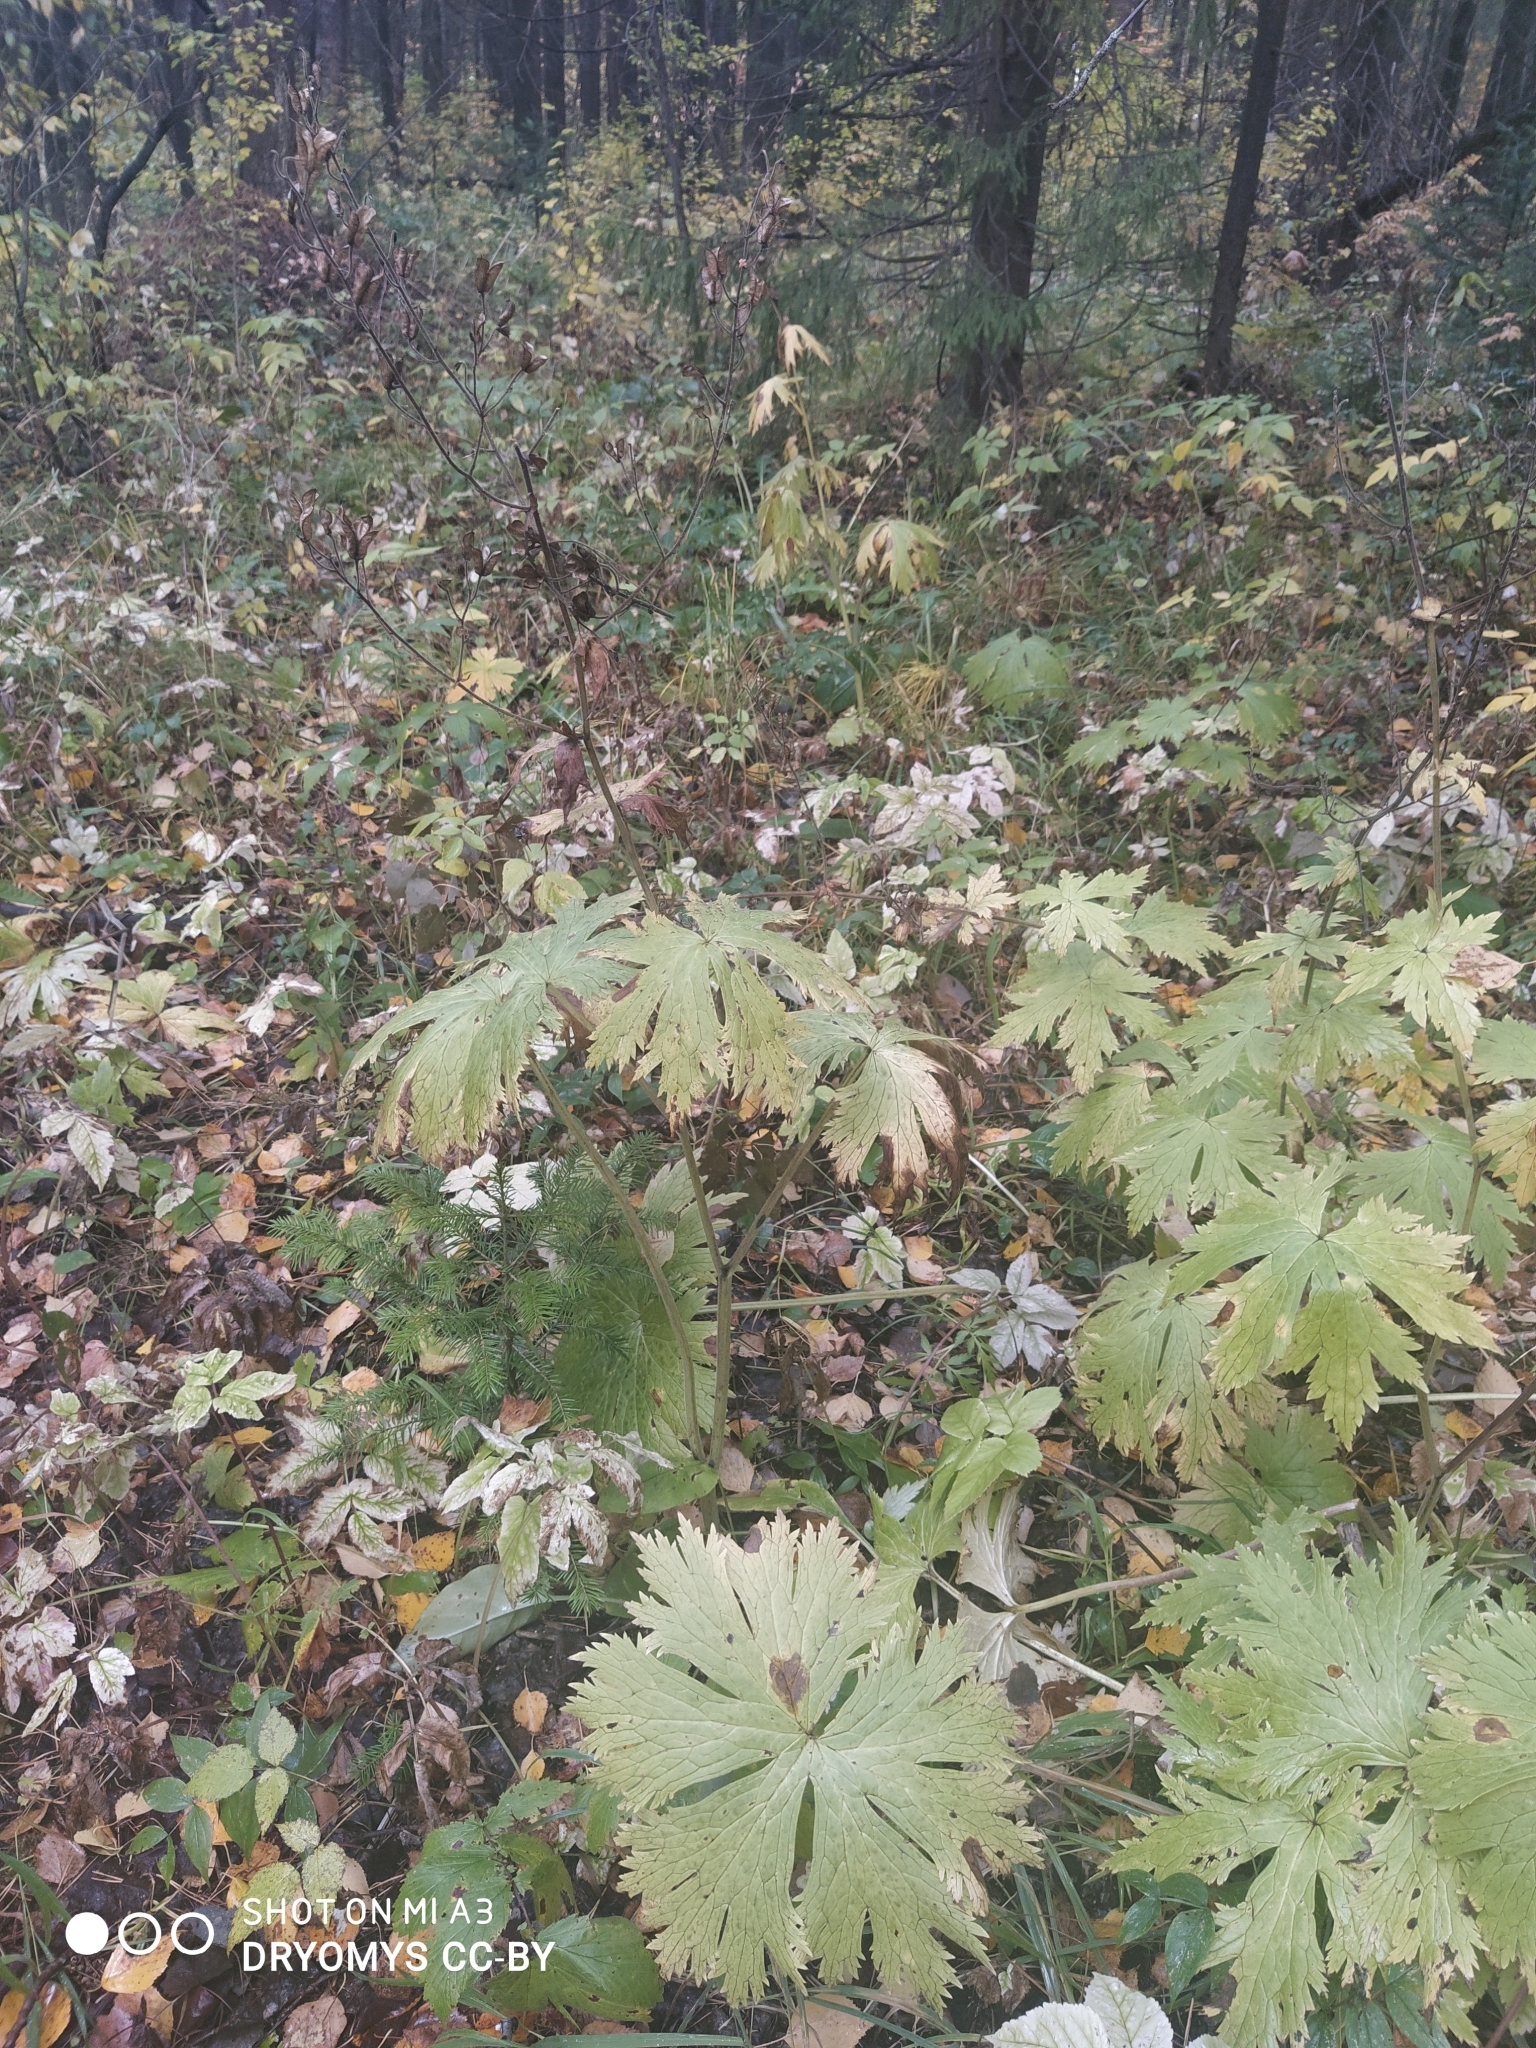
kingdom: Plantae
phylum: Tracheophyta
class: Magnoliopsida
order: Ranunculales
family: Ranunculaceae
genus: Aconitum
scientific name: Aconitum septentrionale
